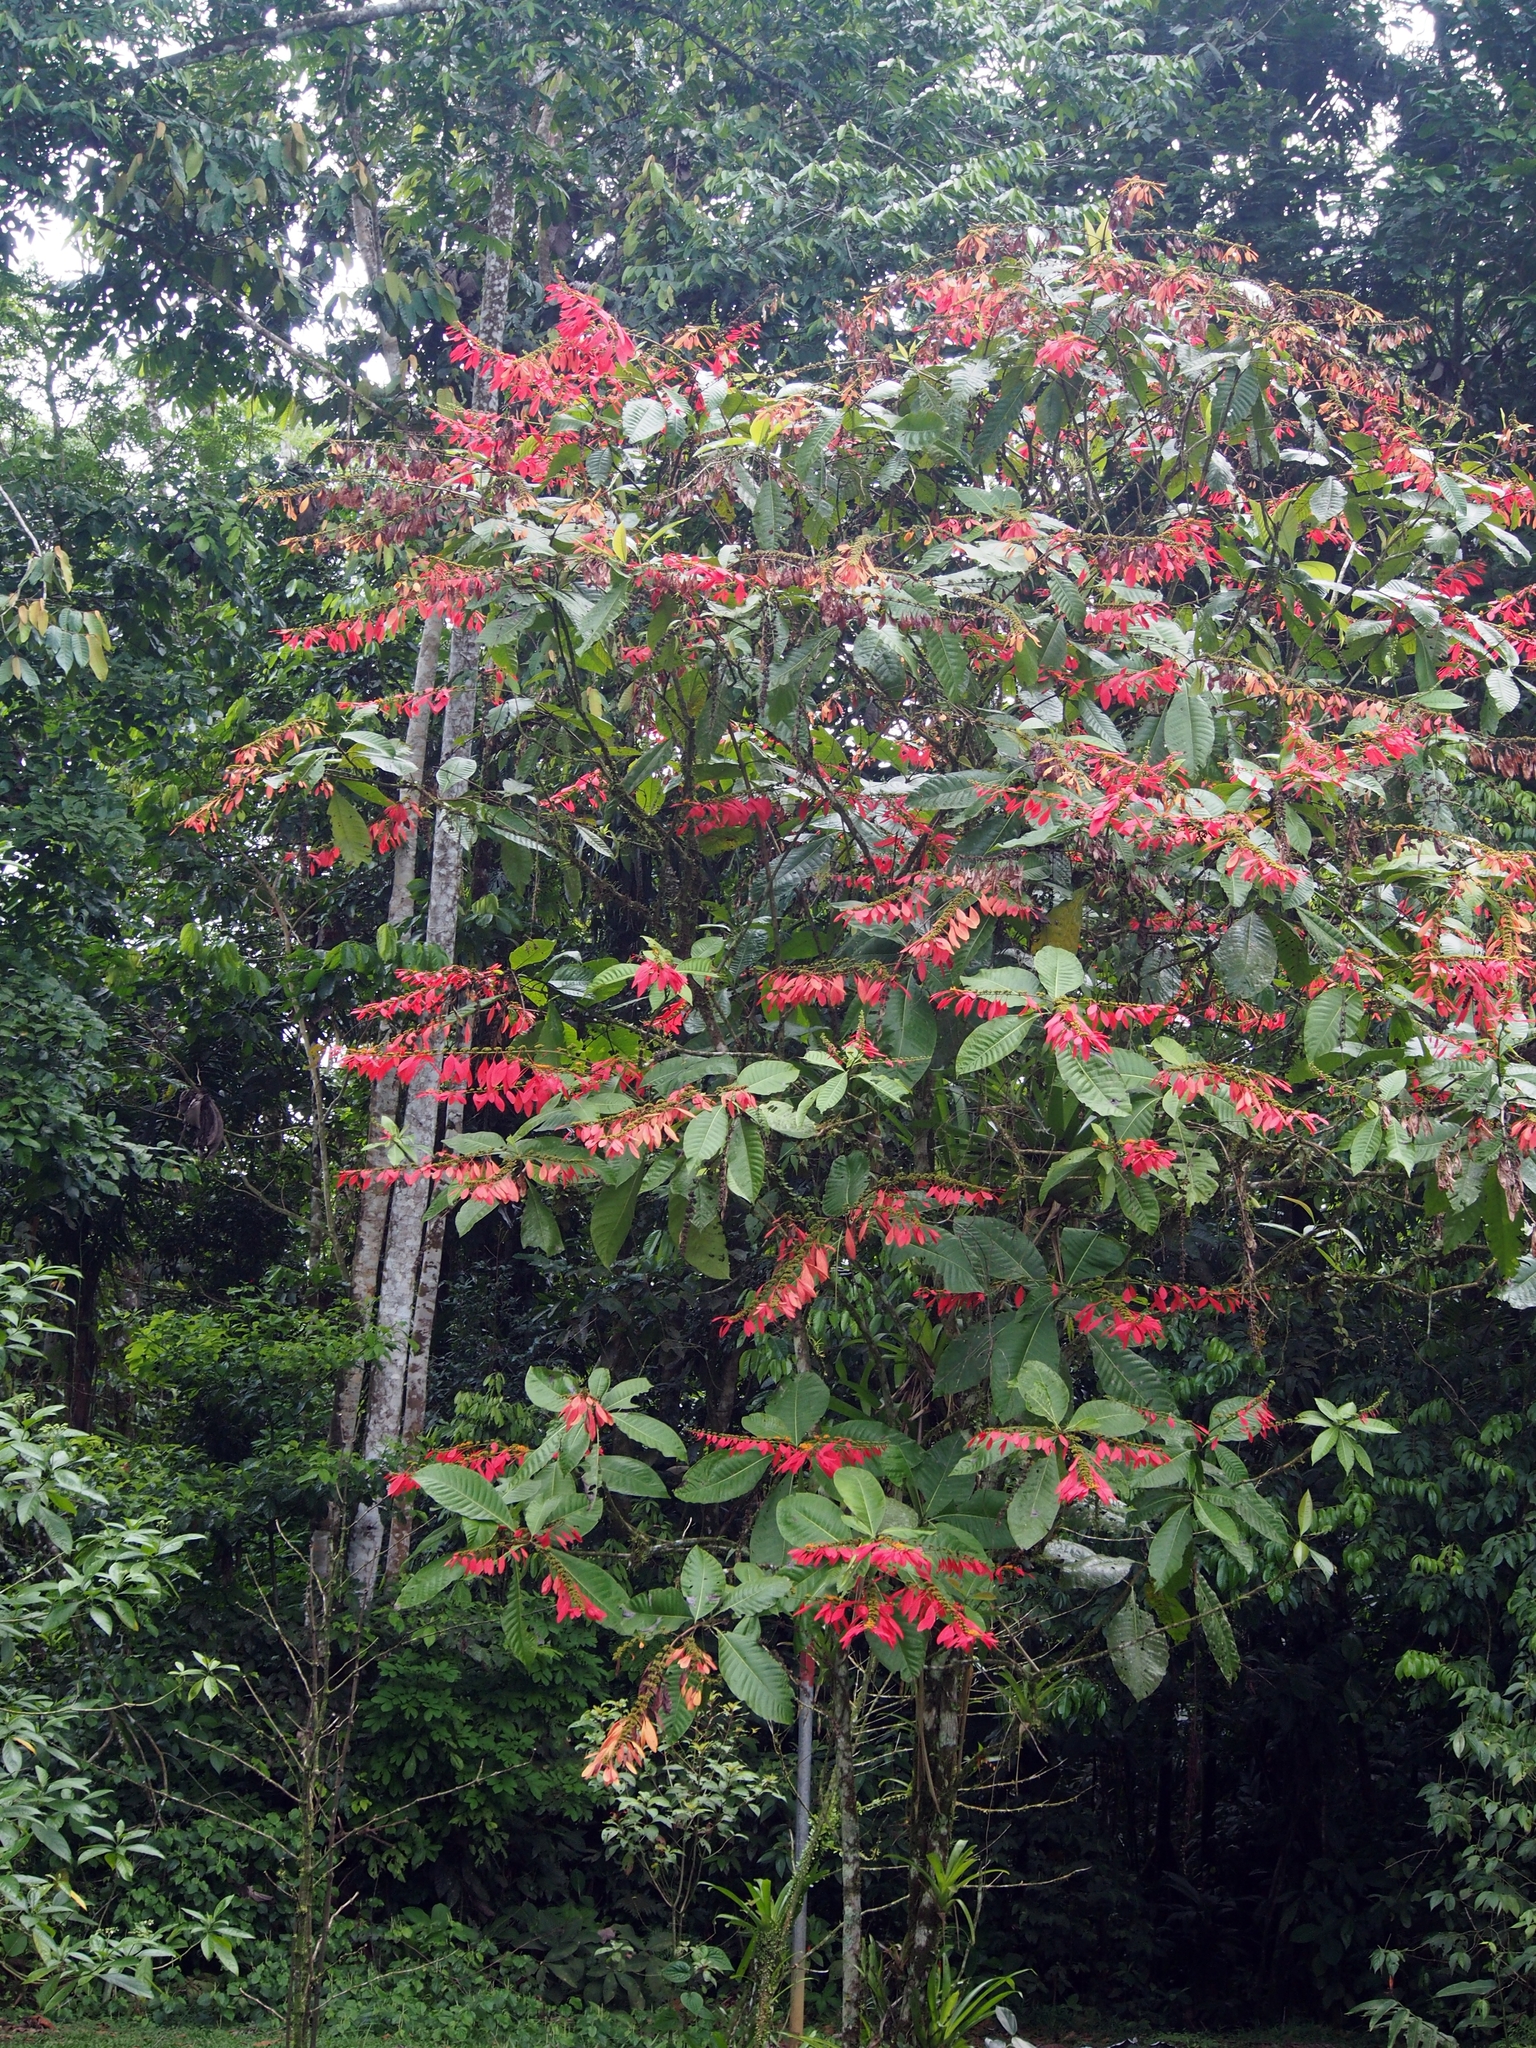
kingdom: Plantae
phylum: Tracheophyta
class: Magnoliopsida
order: Gentianales
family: Rubiaceae
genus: Warszewiczia
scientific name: Warszewiczia coccinea
